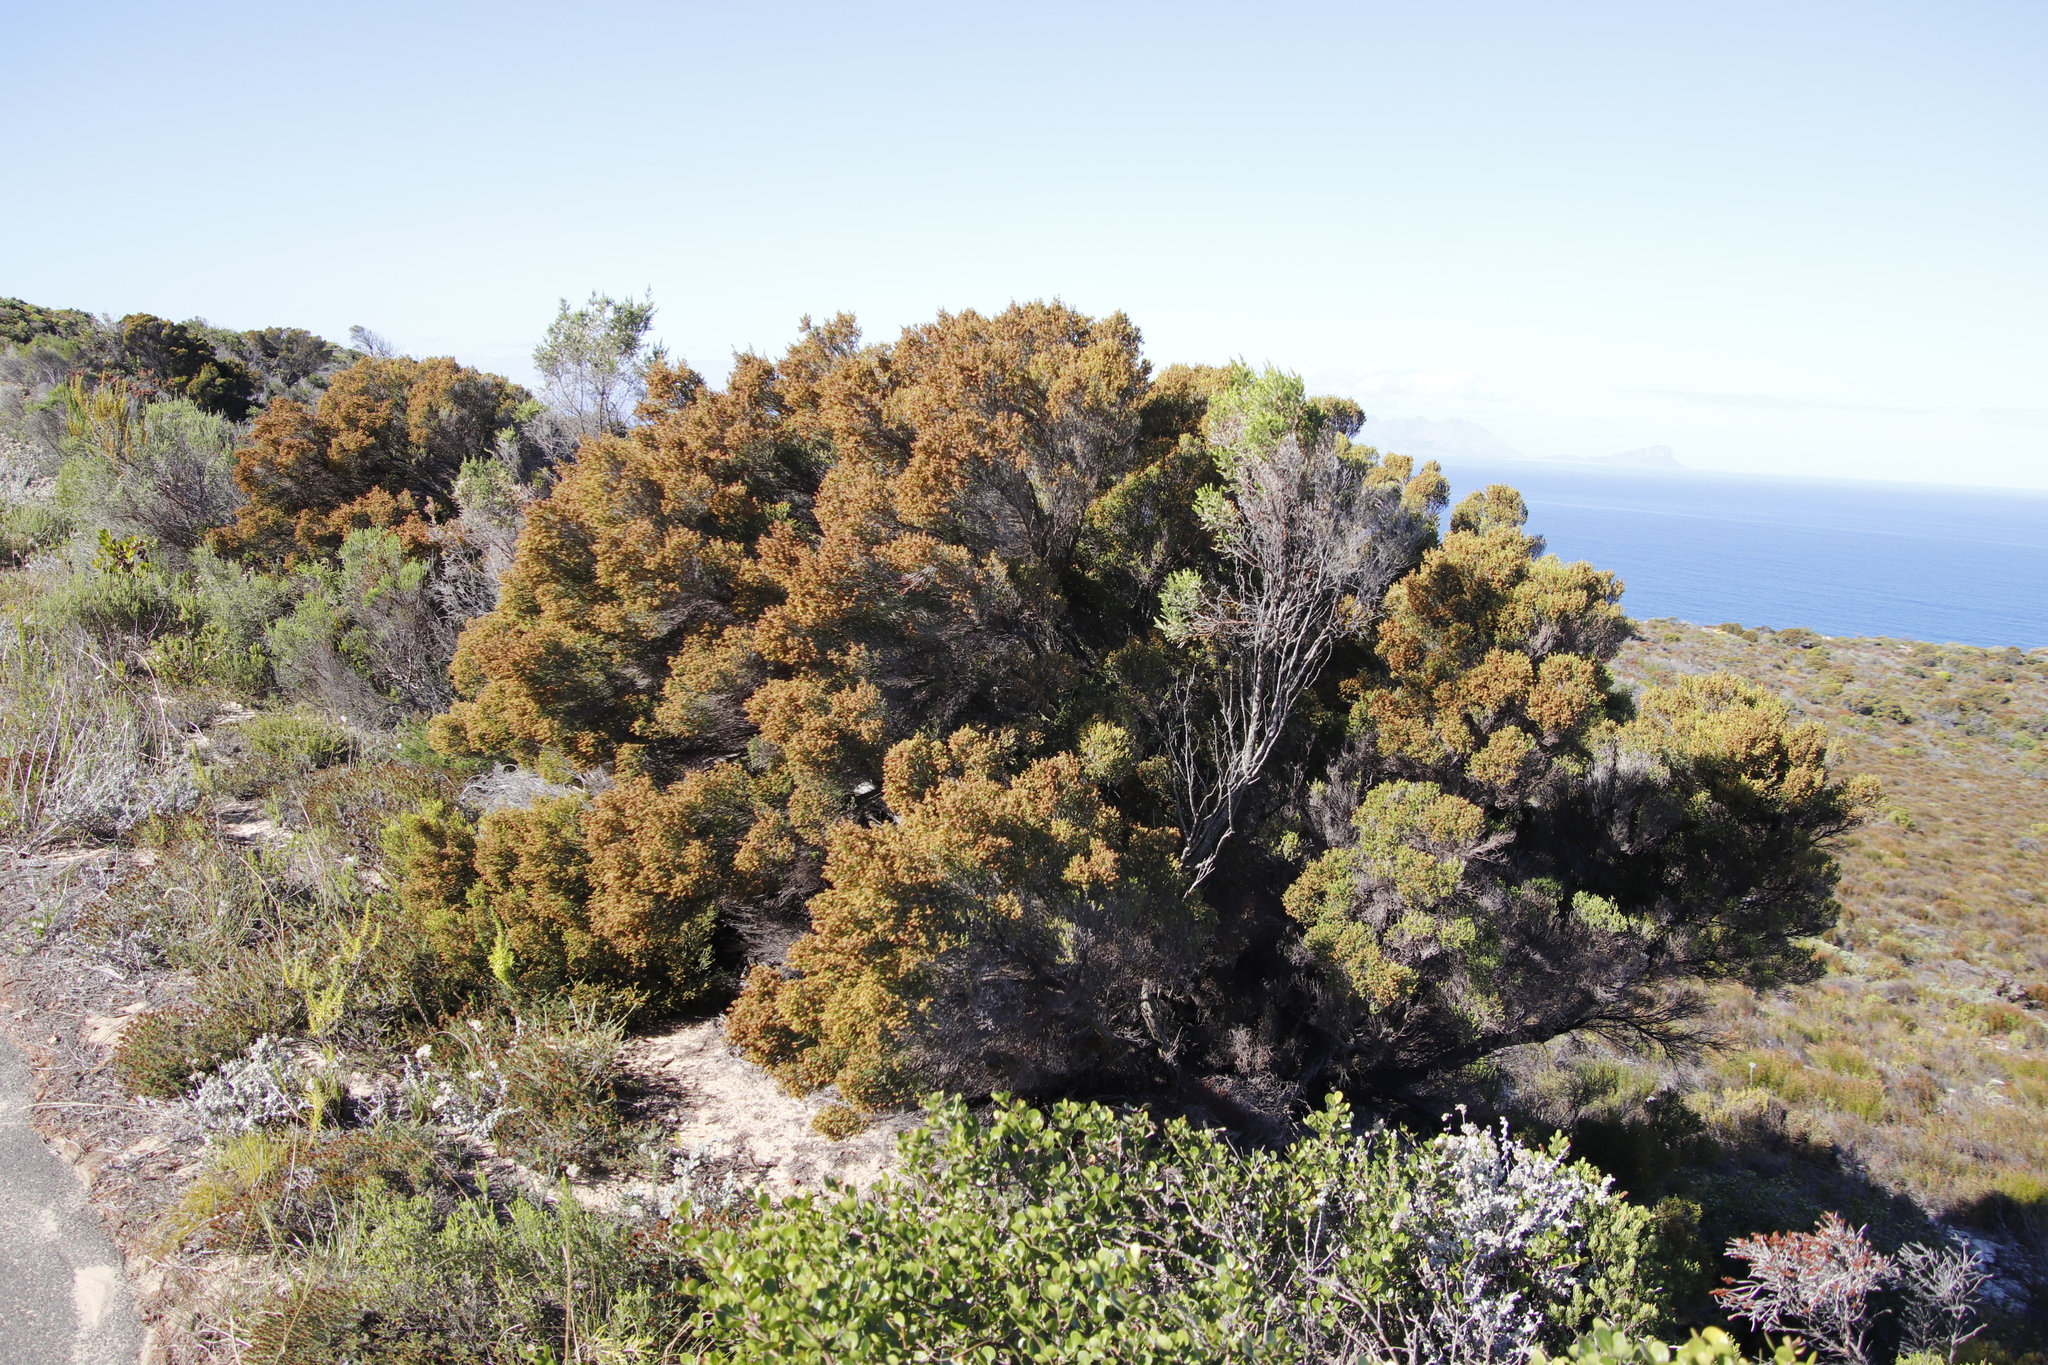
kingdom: Plantae
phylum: Tracheophyta
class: Magnoliopsida
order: Ericales
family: Ericaceae
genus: Erica
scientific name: Erica tristis
